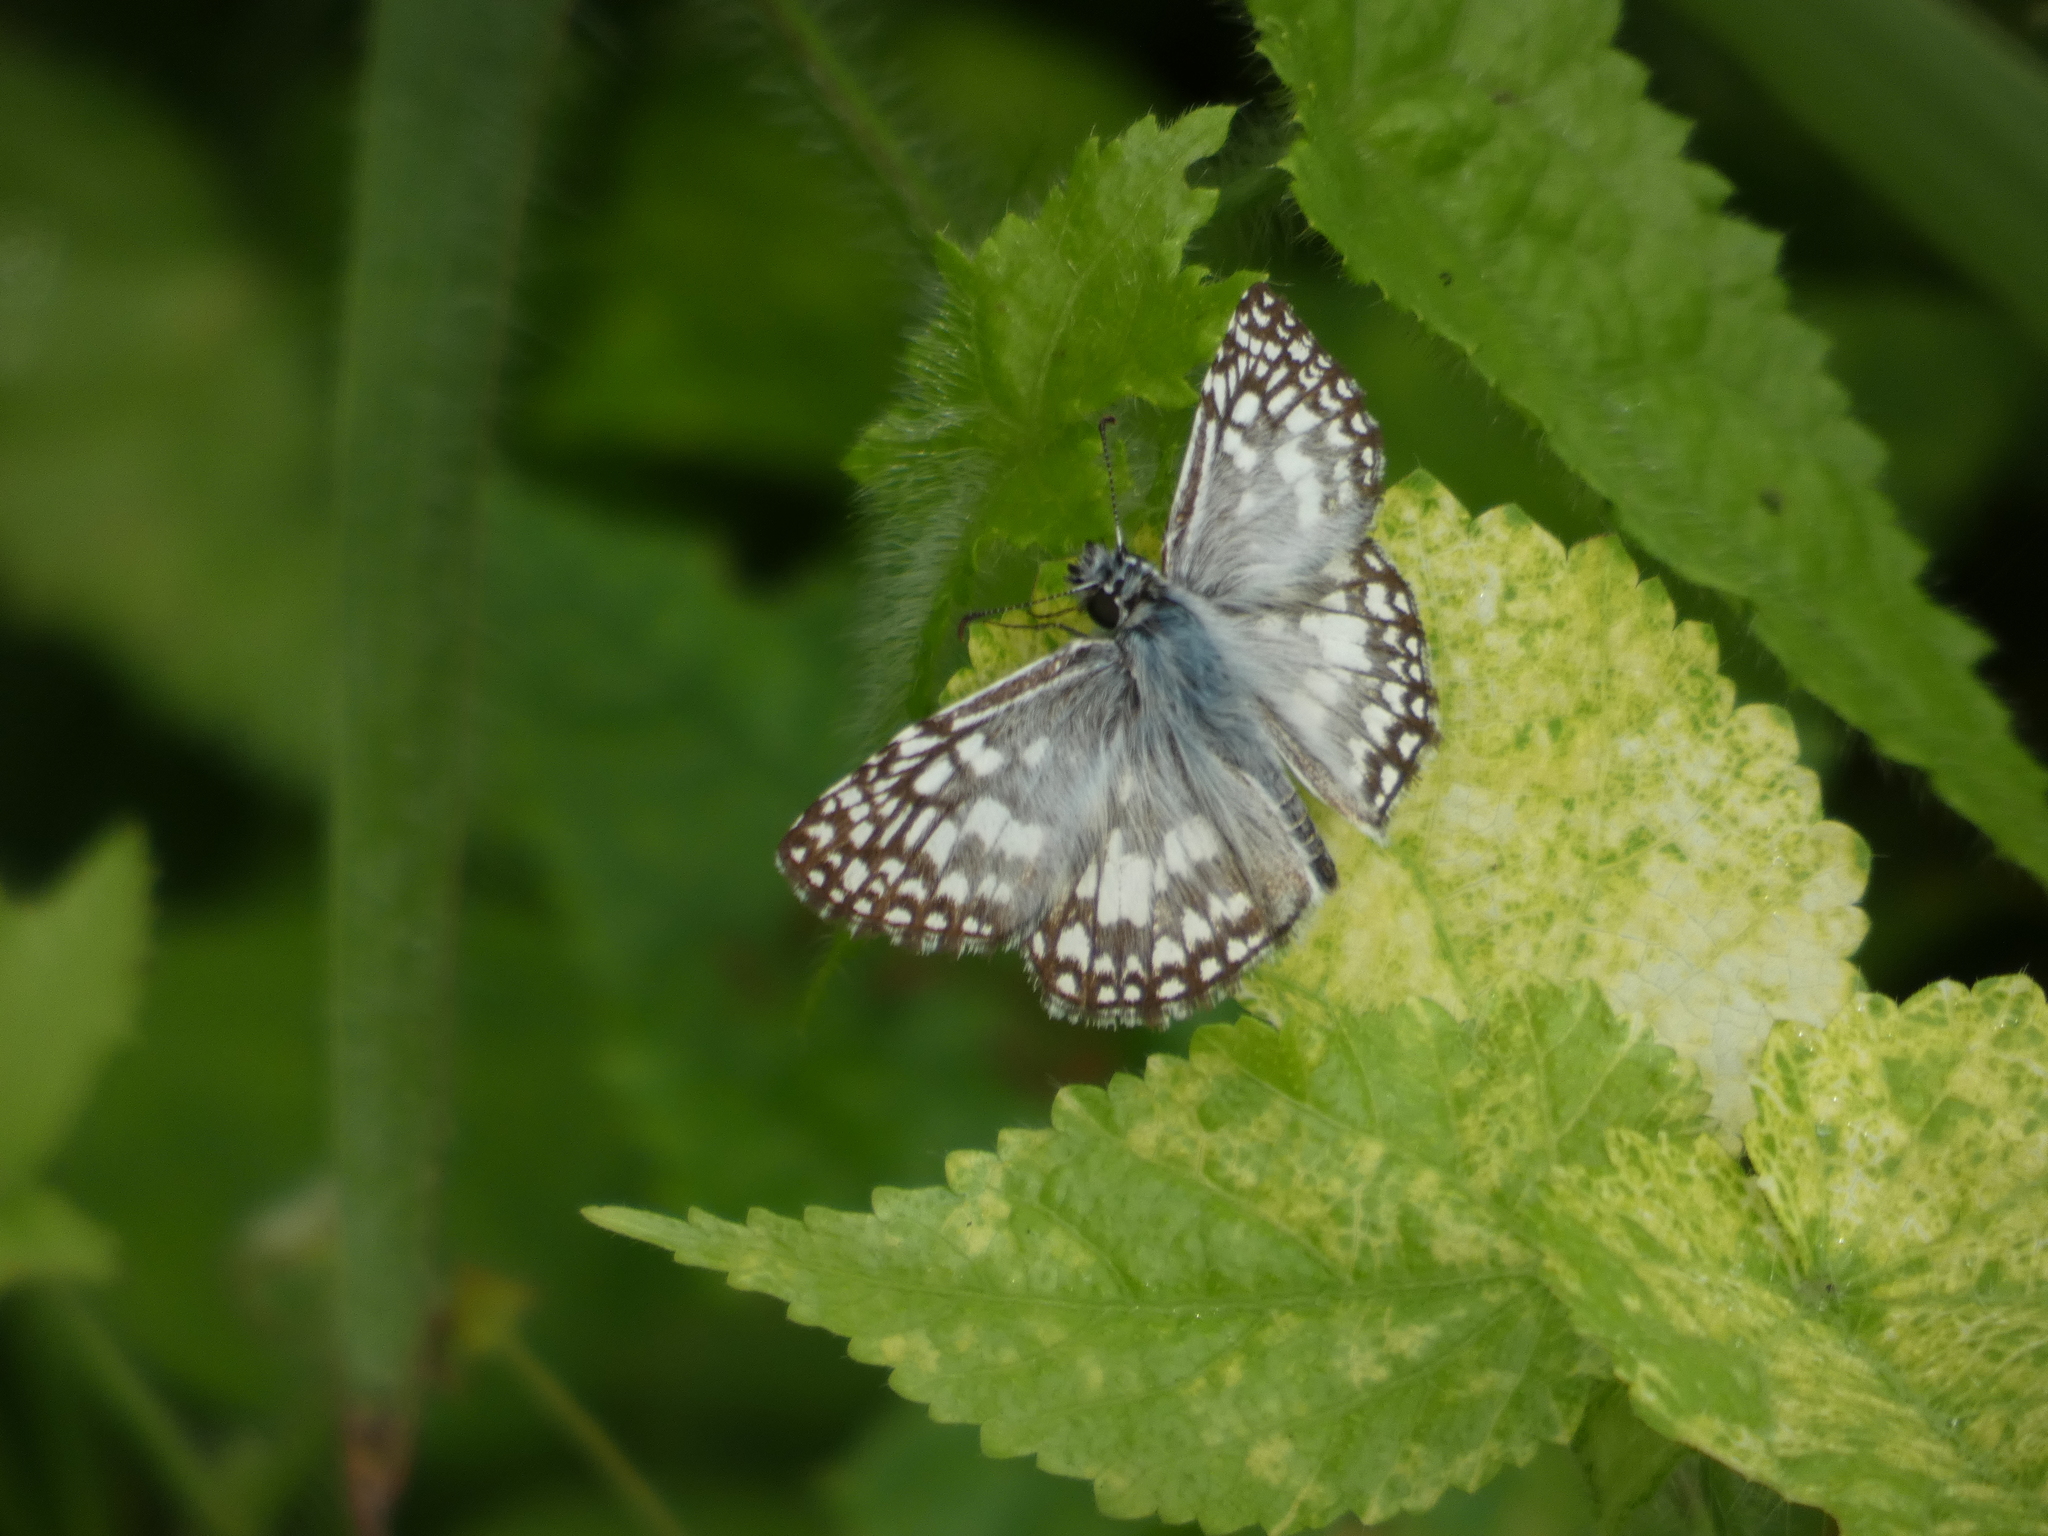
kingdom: Animalia
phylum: Arthropoda
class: Insecta
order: Lepidoptera
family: Hesperiidae
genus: Pyrgus
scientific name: Pyrgus oileus
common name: Tropical checkered-skipper
